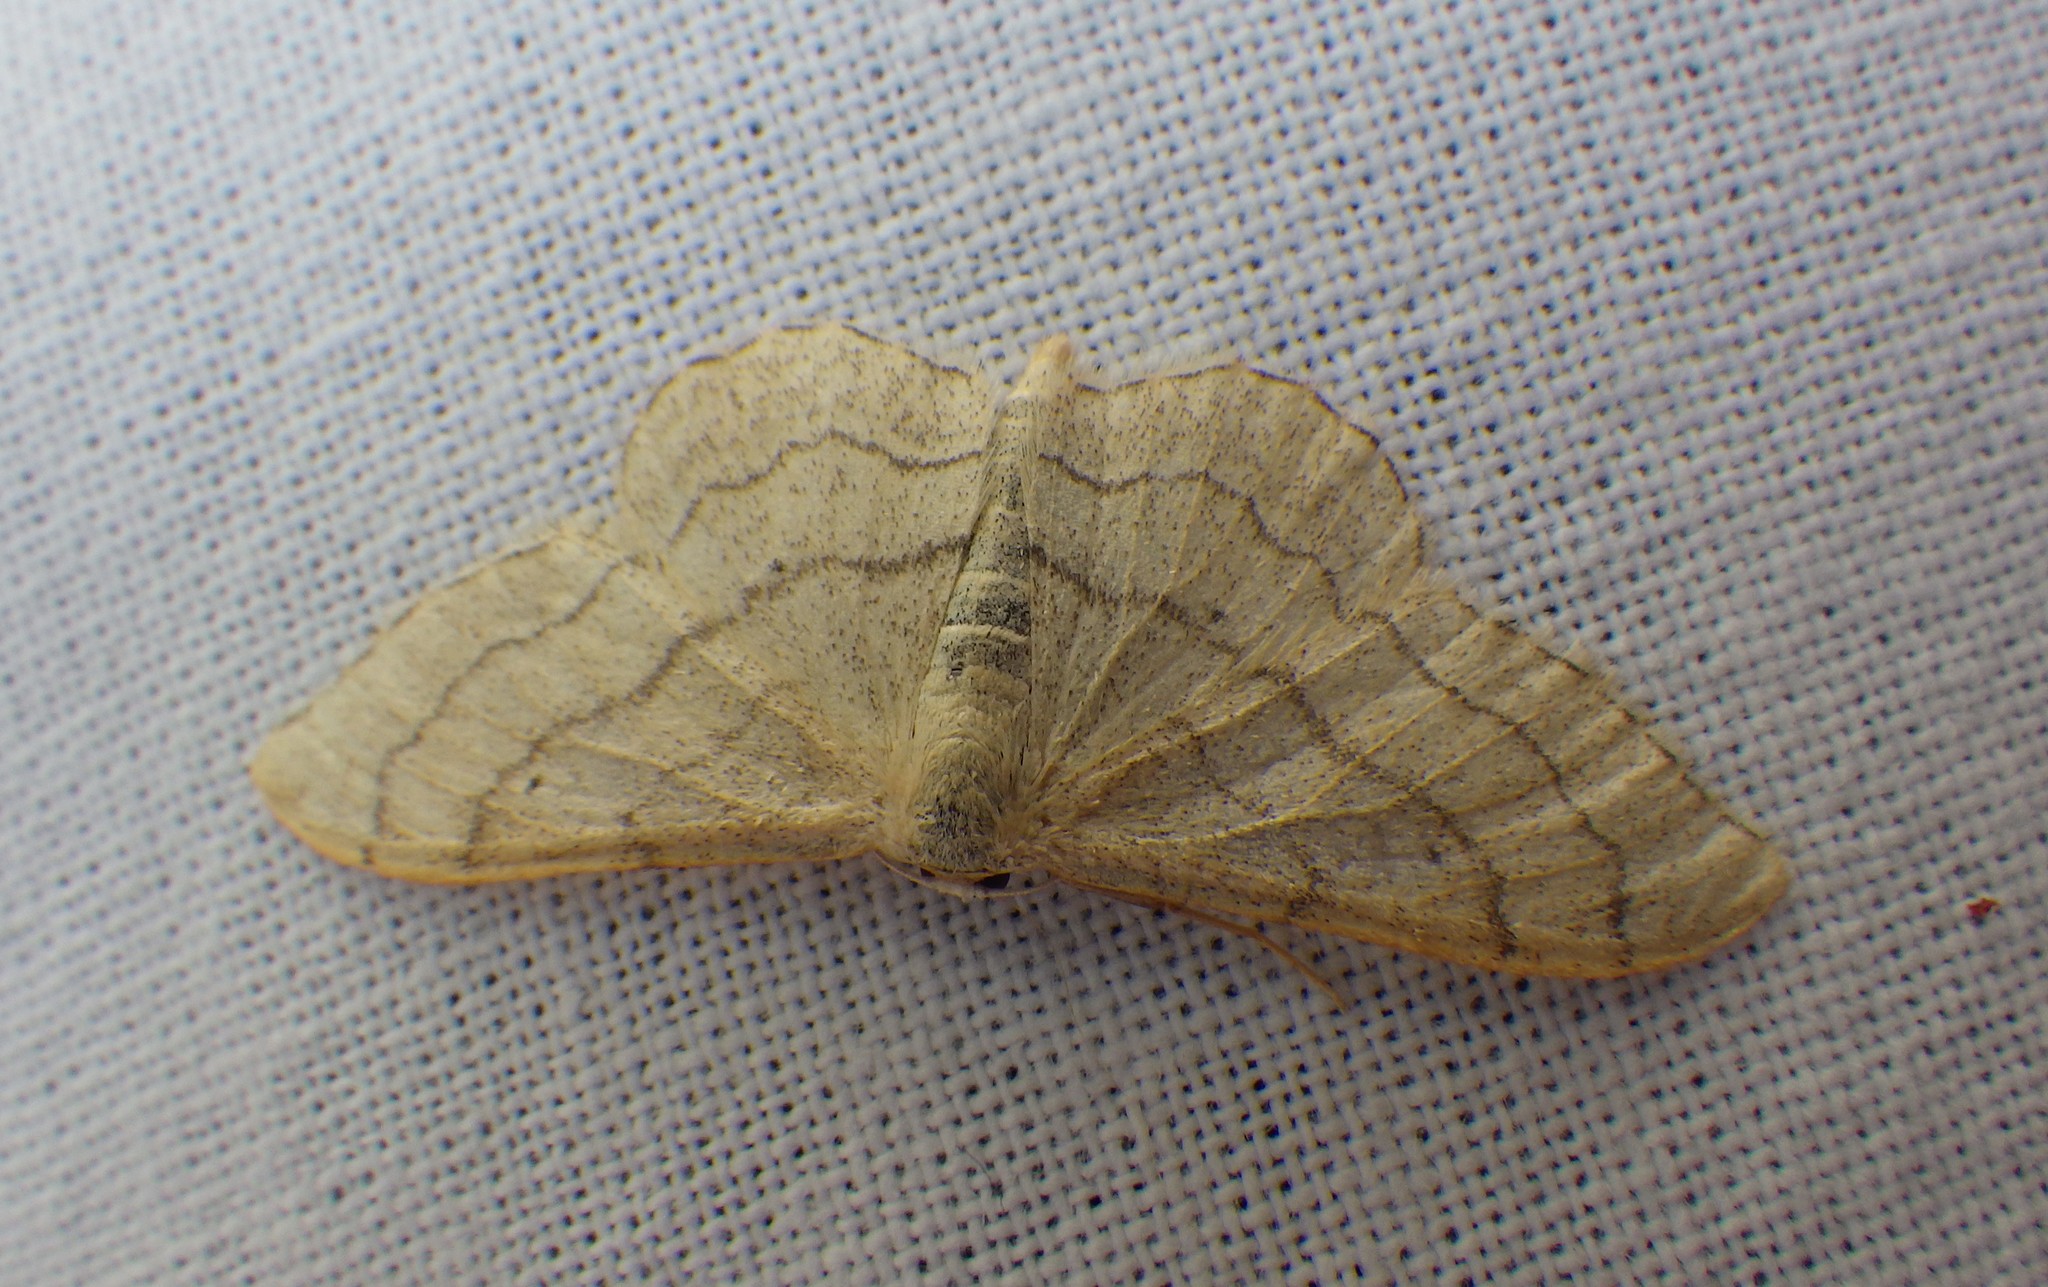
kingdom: Animalia
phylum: Arthropoda
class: Insecta
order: Lepidoptera
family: Geometridae
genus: Idaea
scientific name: Idaea aversata
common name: Riband wave
